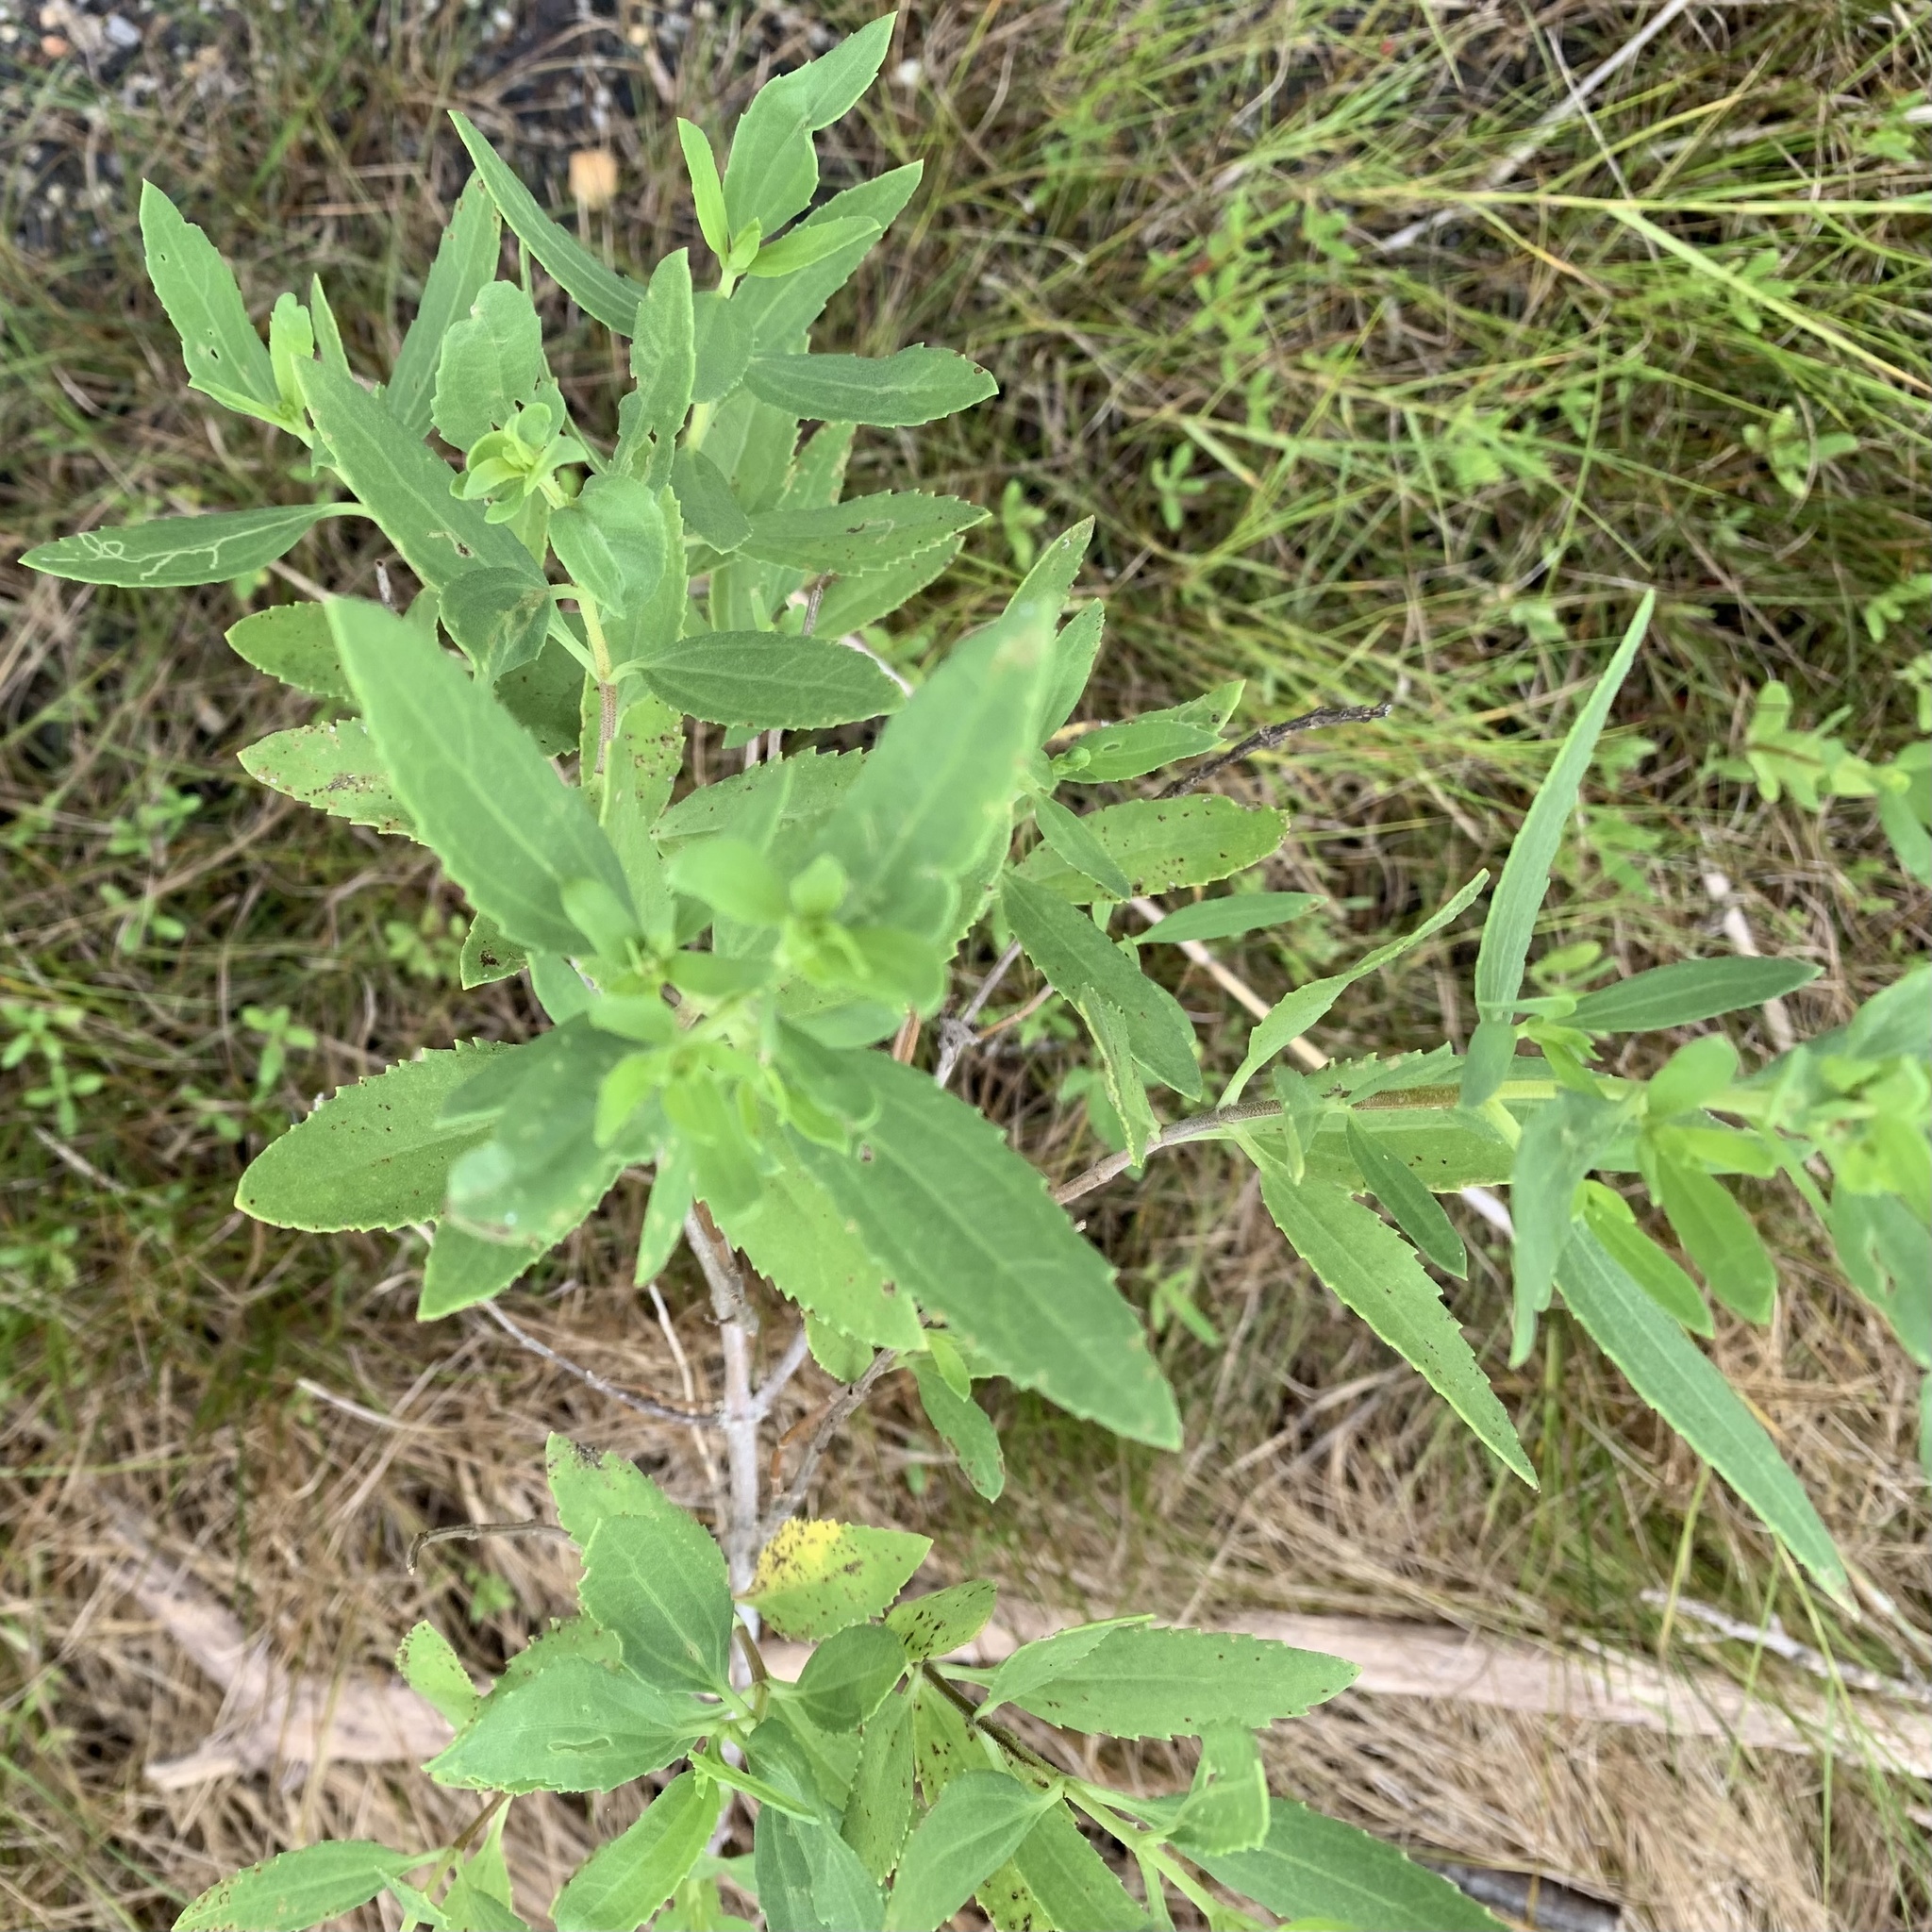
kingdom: Plantae
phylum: Tracheophyta
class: Magnoliopsida
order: Asterales
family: Asteraceae
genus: Iva
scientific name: Iva frutescens
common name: Big-leaved marsh-elder
